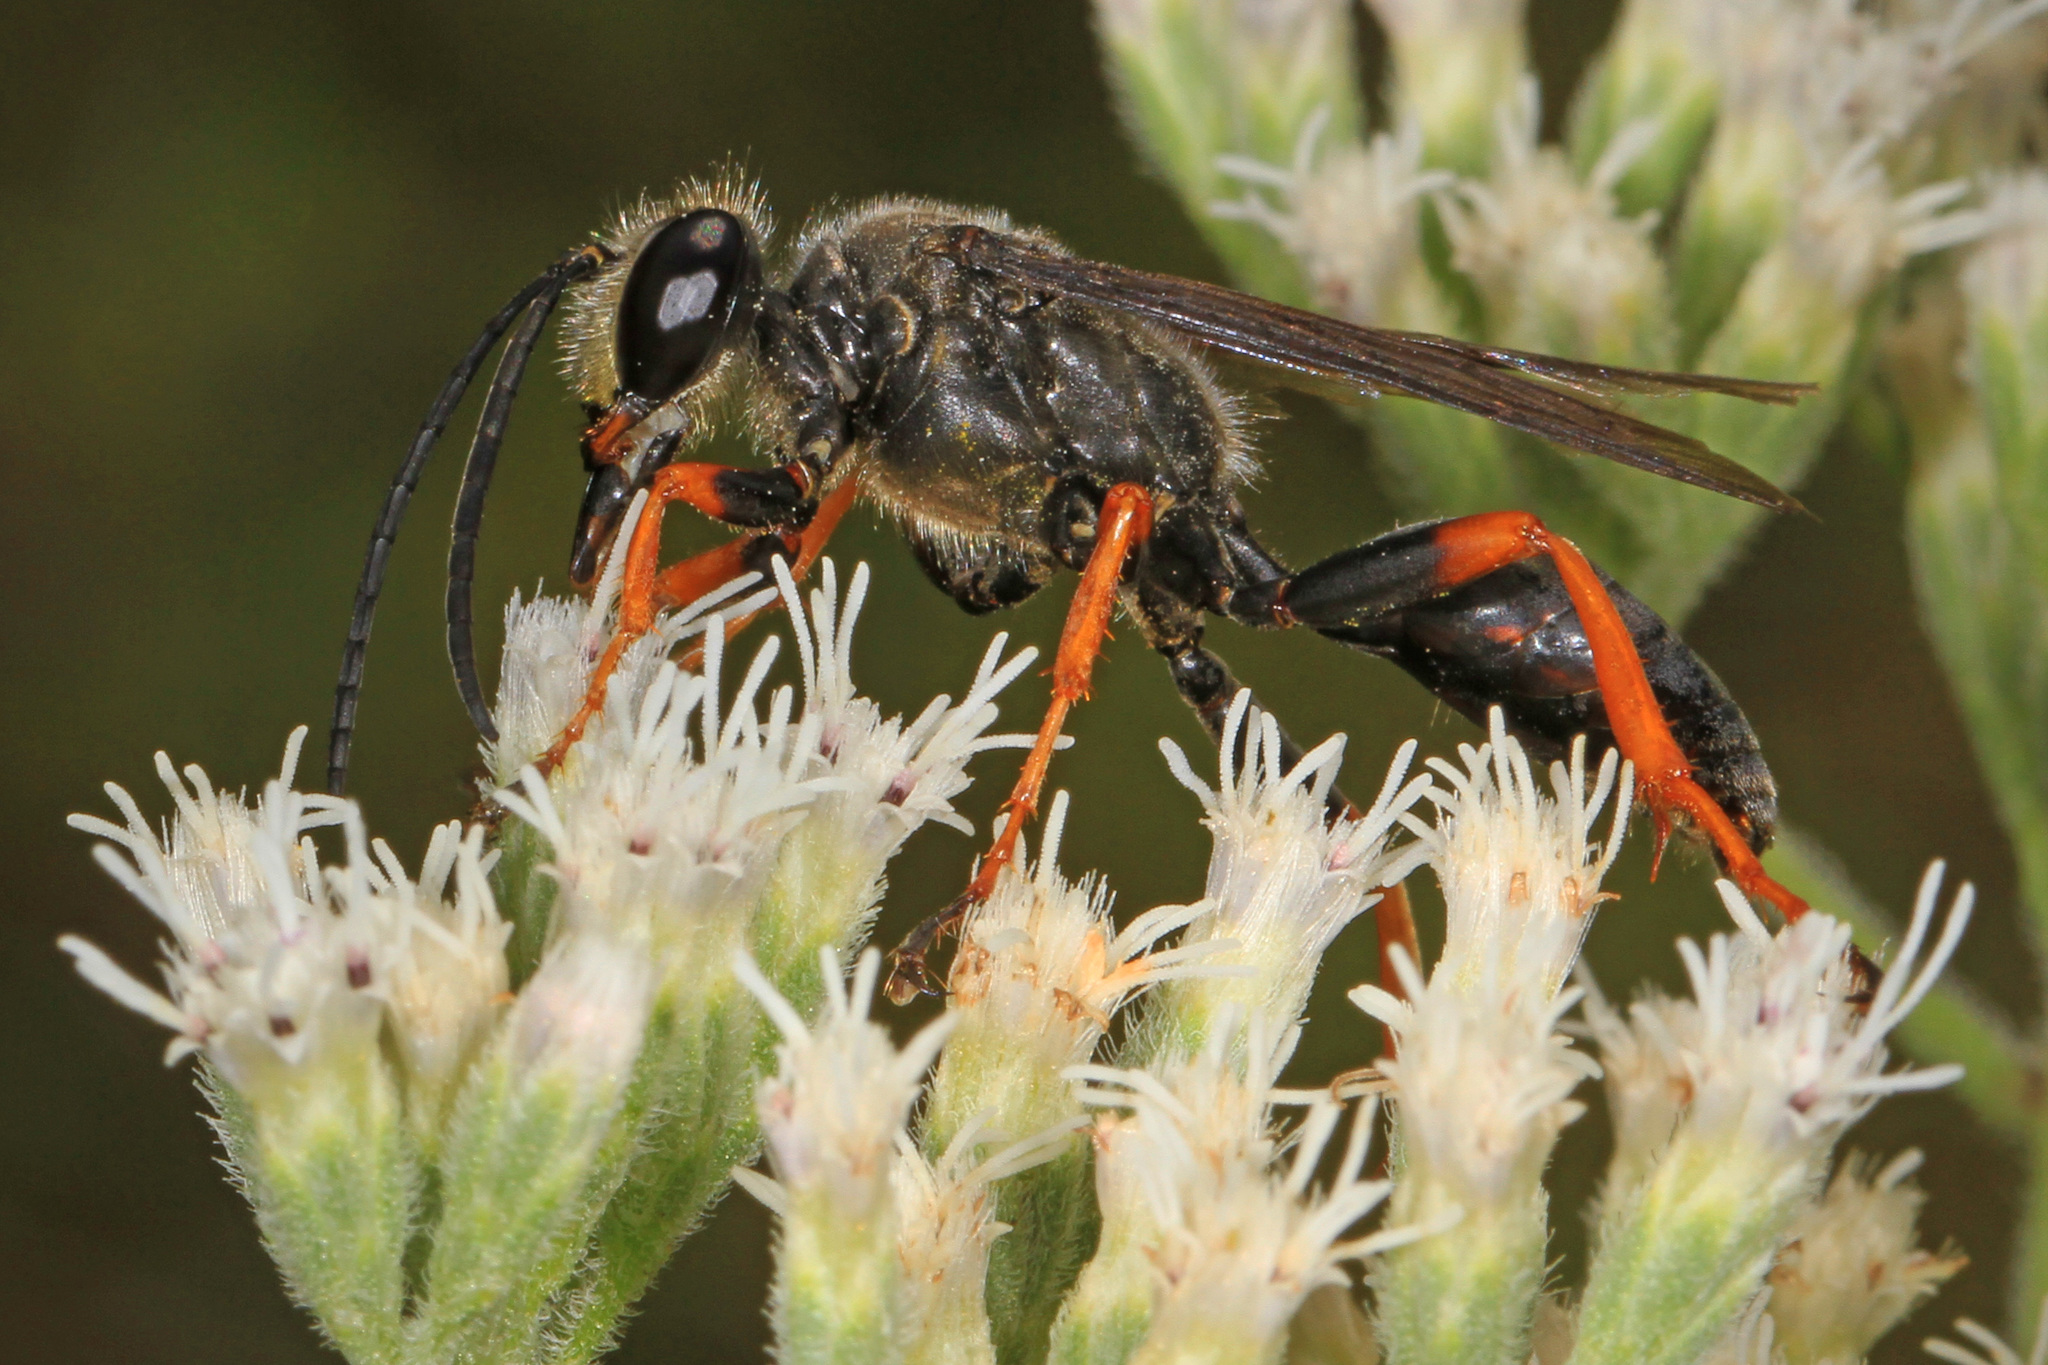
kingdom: Animalia
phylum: Arthropoda
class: Insecta
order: Hymenoptera
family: Sphecidae
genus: Sphex
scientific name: Sphex nudus
